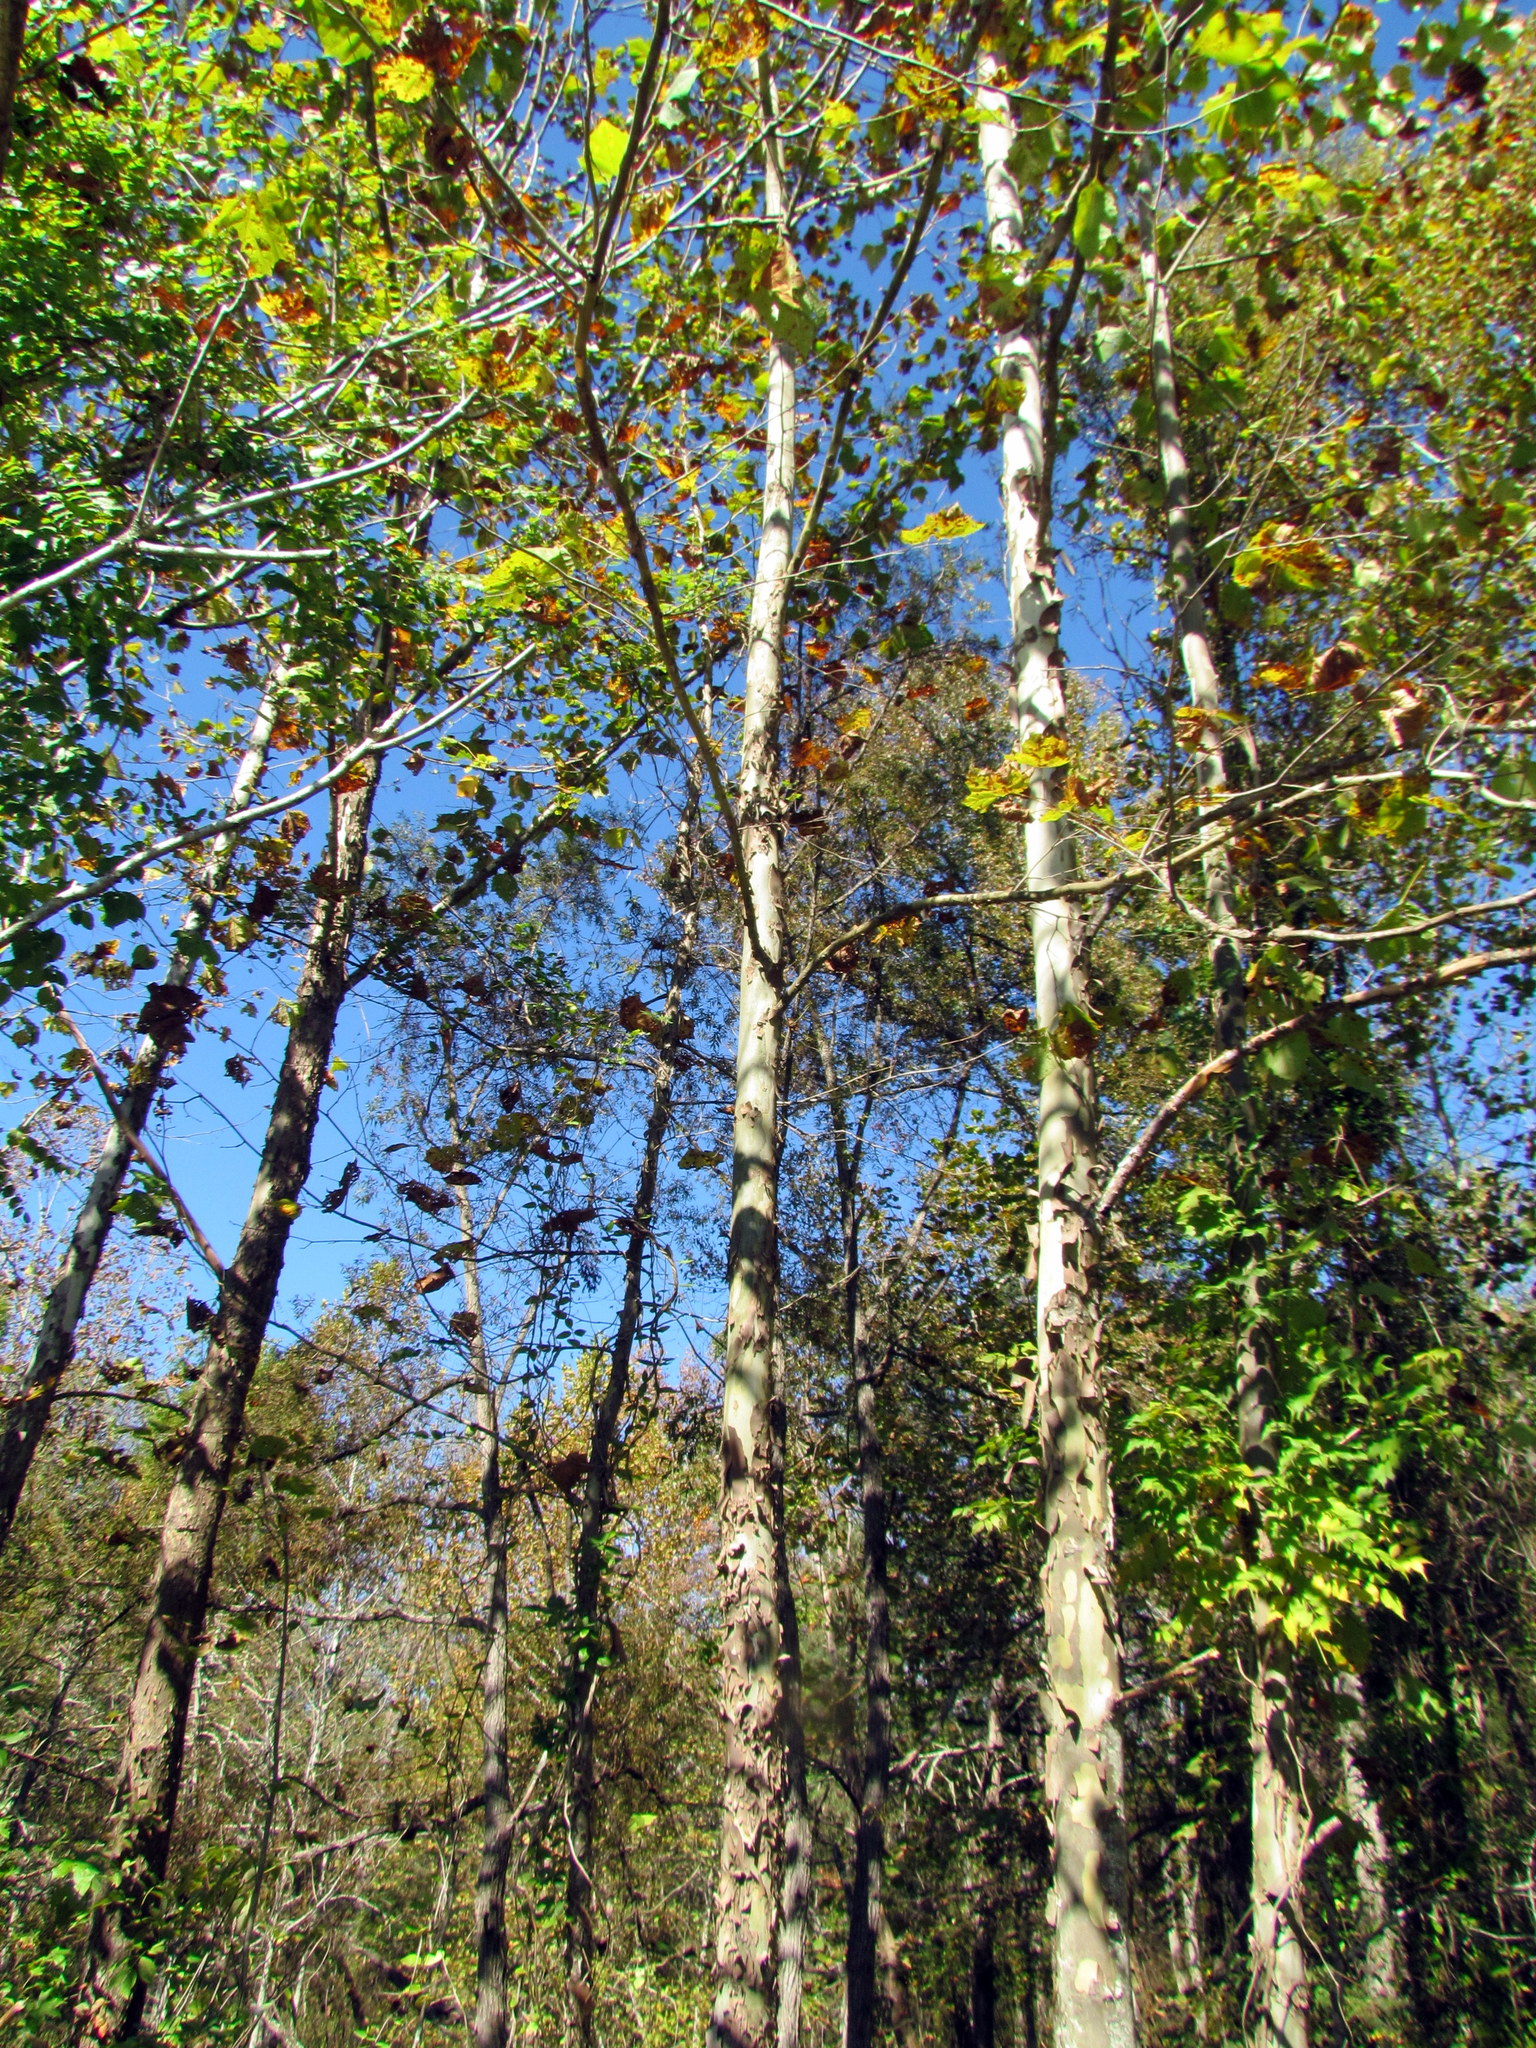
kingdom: Plantae
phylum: Tracheophyta
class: Magnoliopsida
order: Proteales
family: Platanaceae
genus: Platanus
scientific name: Platanus occidentalis
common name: American sycamore
